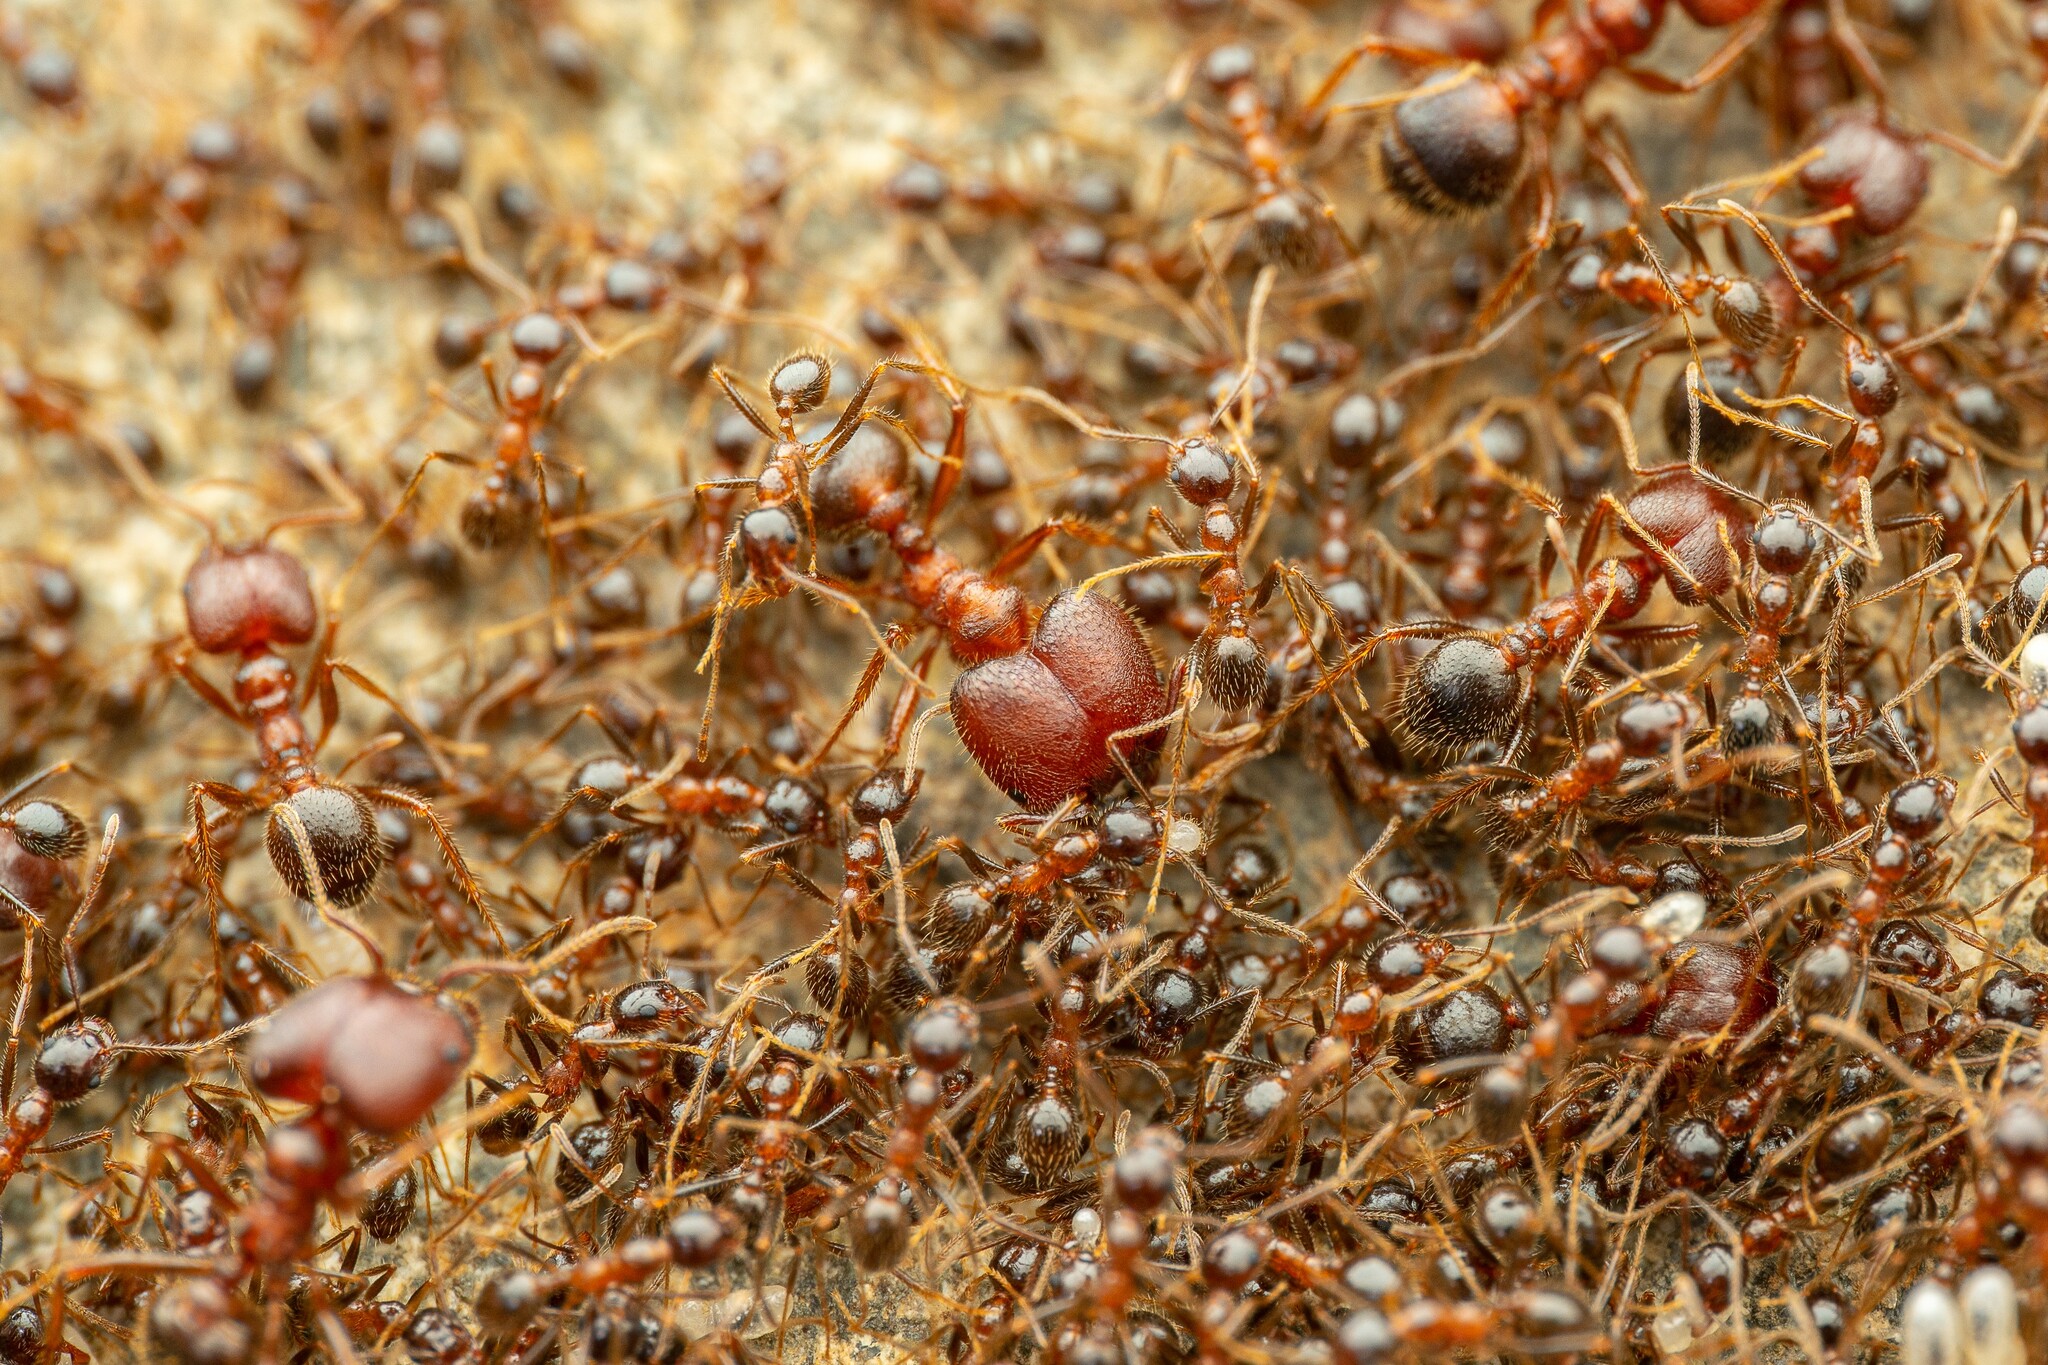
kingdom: Animalia
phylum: Arthropoda
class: Insecta
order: Hymenoptera
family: Formicidae
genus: Pheidole
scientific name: Pheidole obtusospinosa
